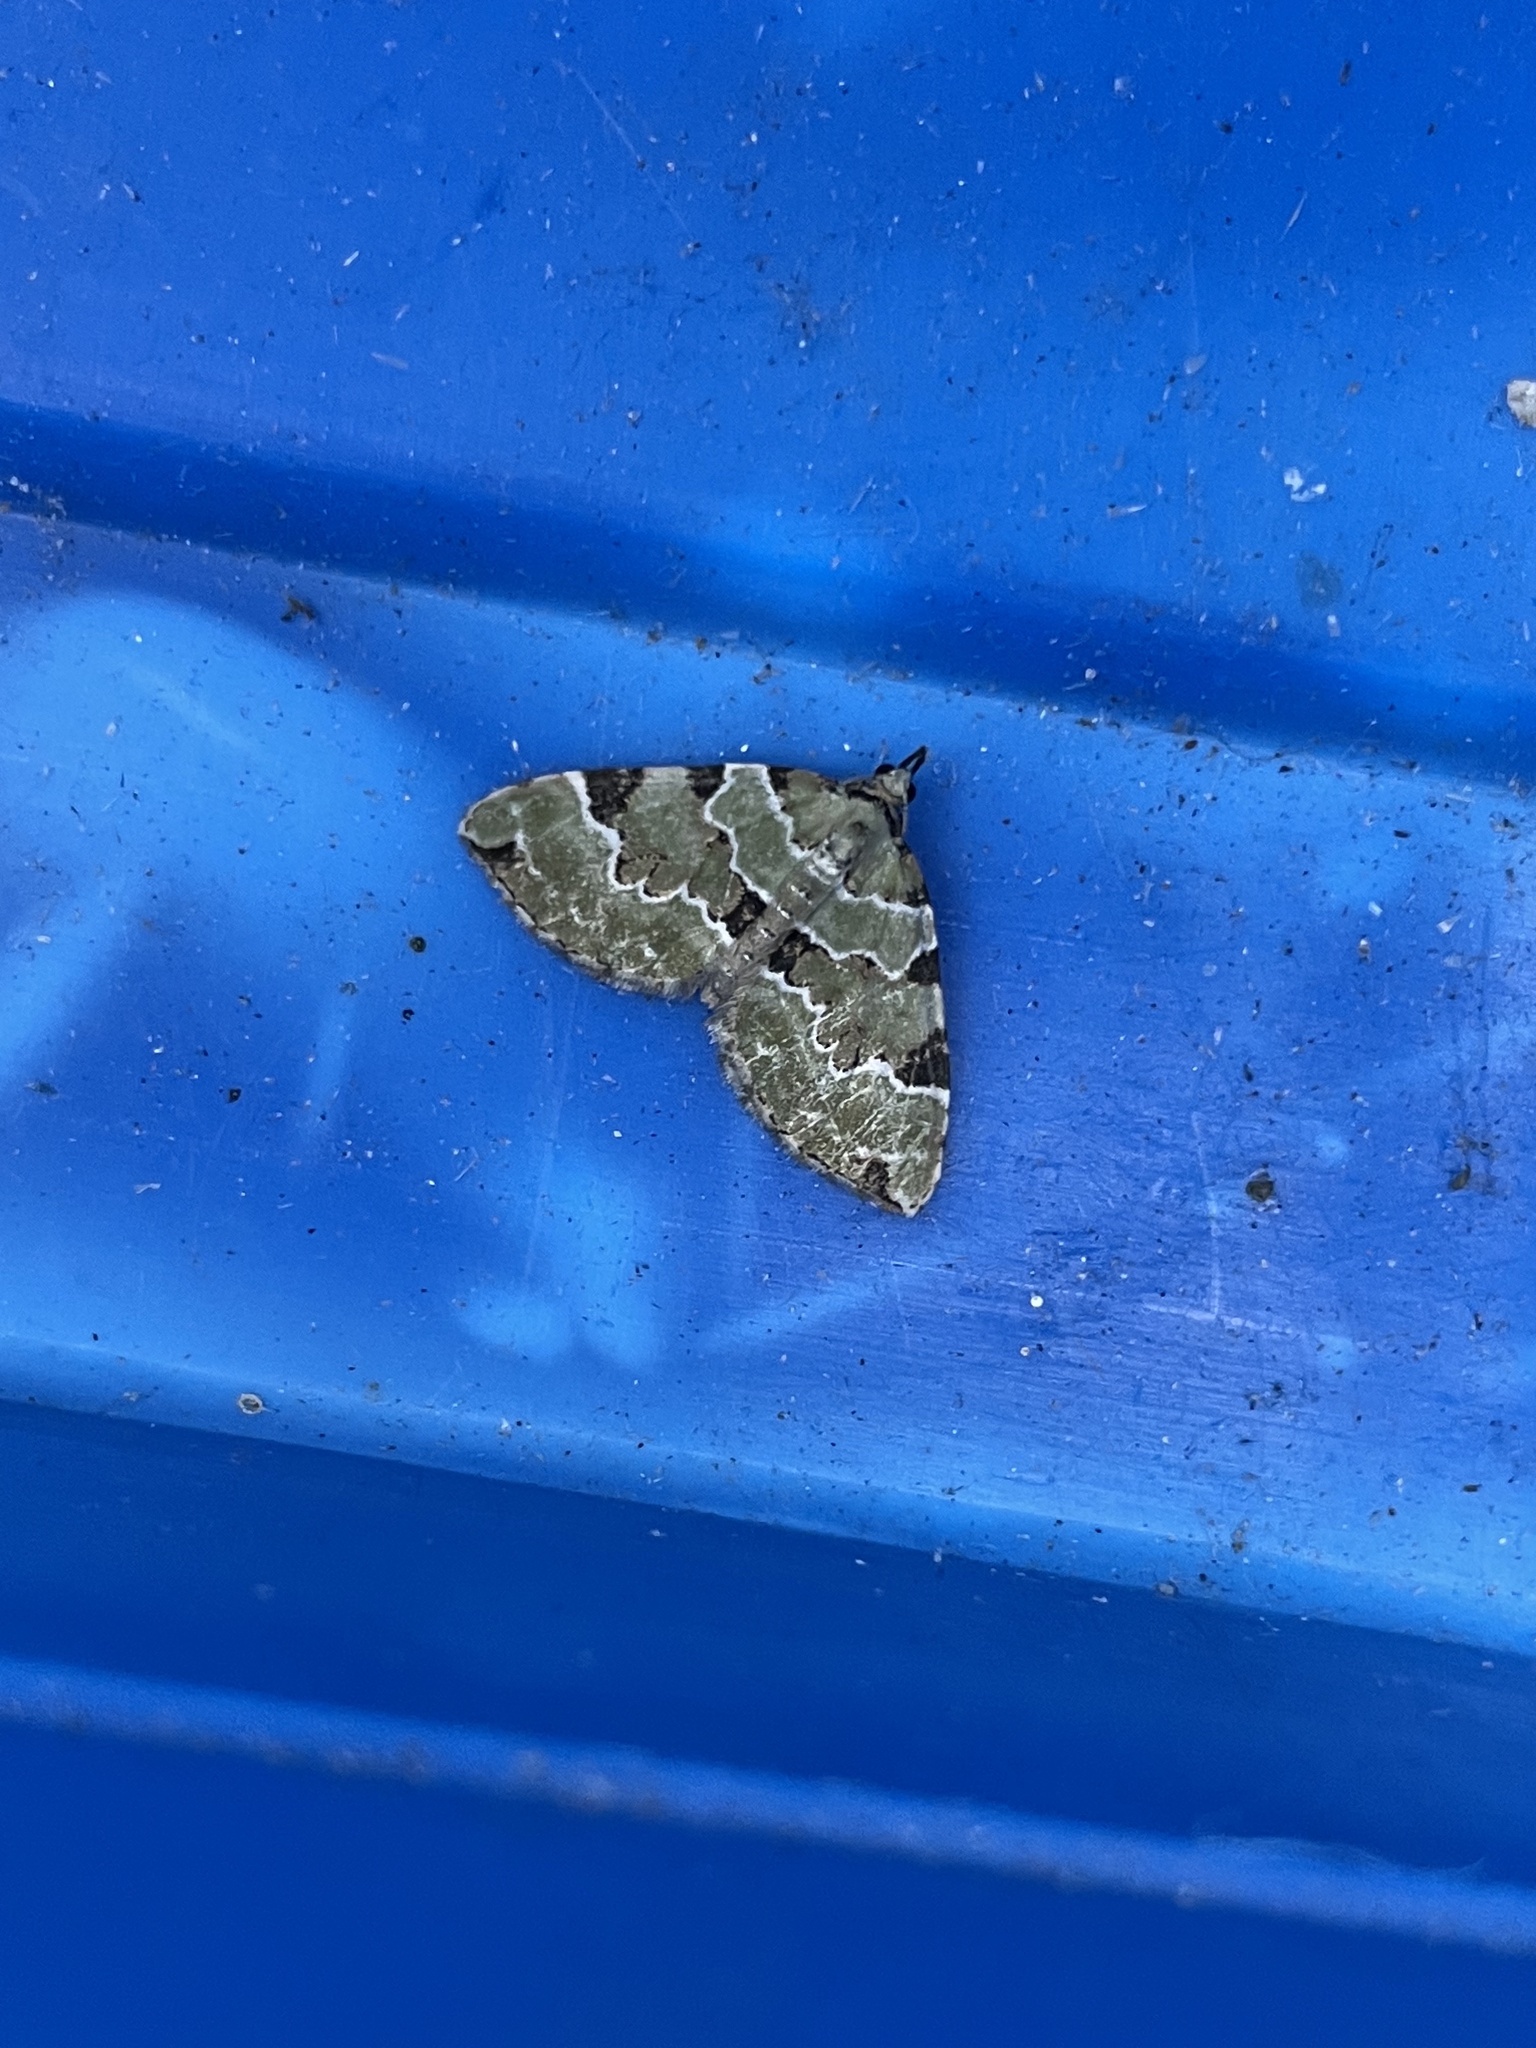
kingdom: Animalia
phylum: Arthropoda
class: Insecta
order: Lepidoptera
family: Geometridae
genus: Colostygia
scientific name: Colostygia pectinataria
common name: Green carpet
